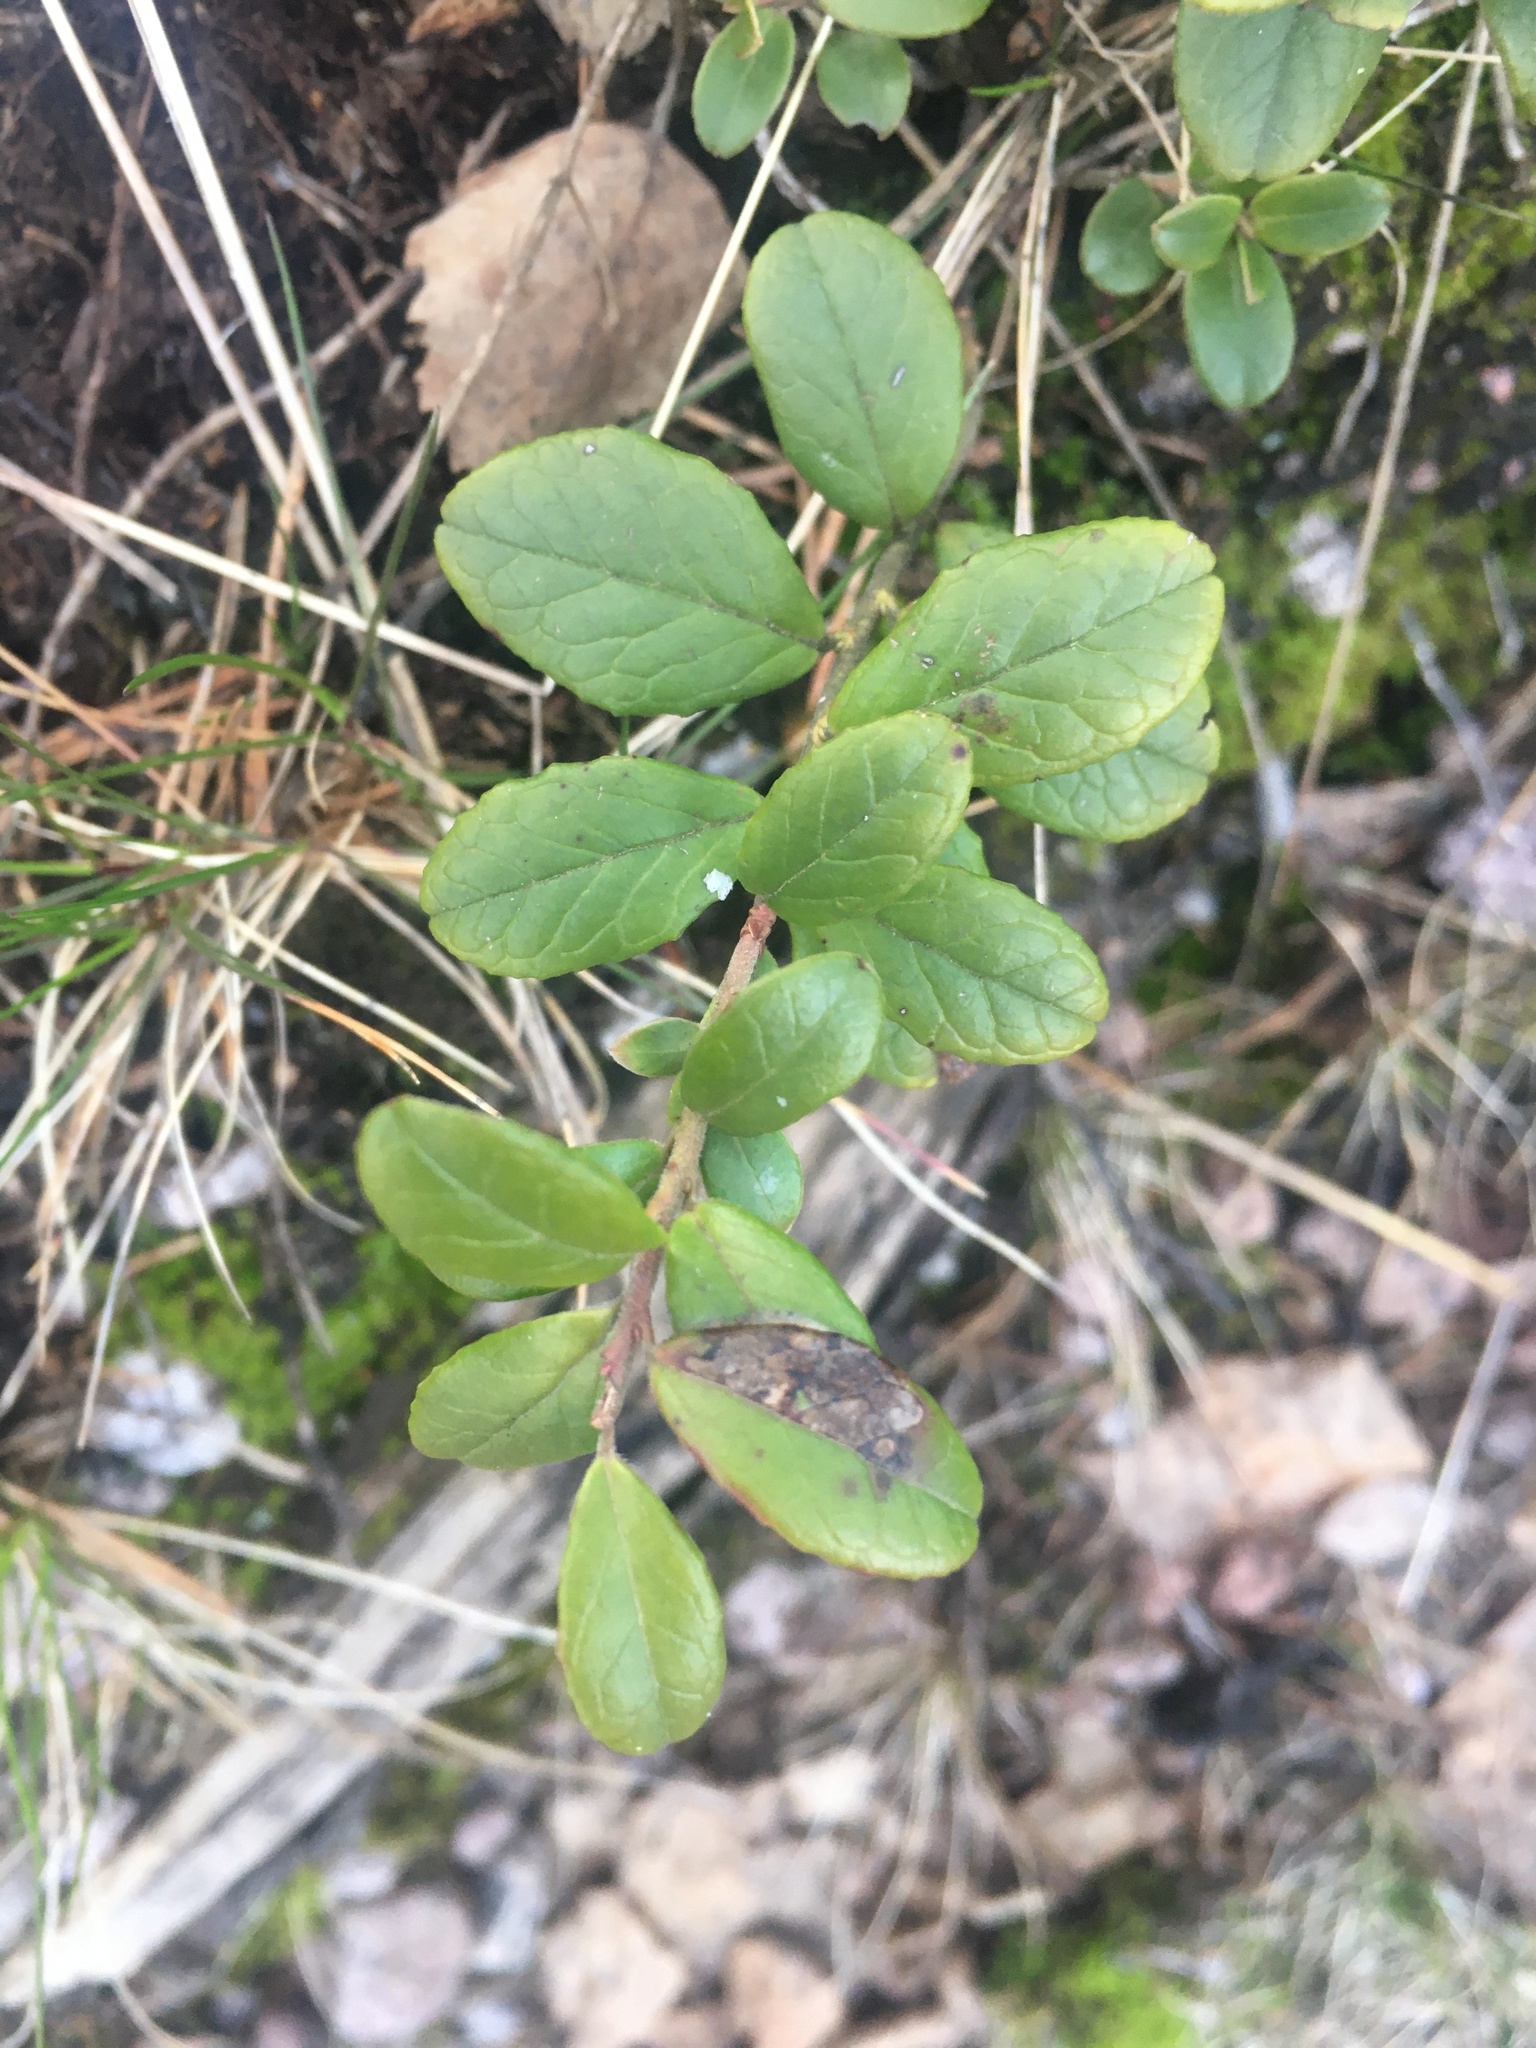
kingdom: Plantae
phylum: Tracheophyta
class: Magnoliopsida
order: Ericales
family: Ericaceae
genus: Vaccinium
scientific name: Vaccinium vitis-idaea
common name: Cowberry
